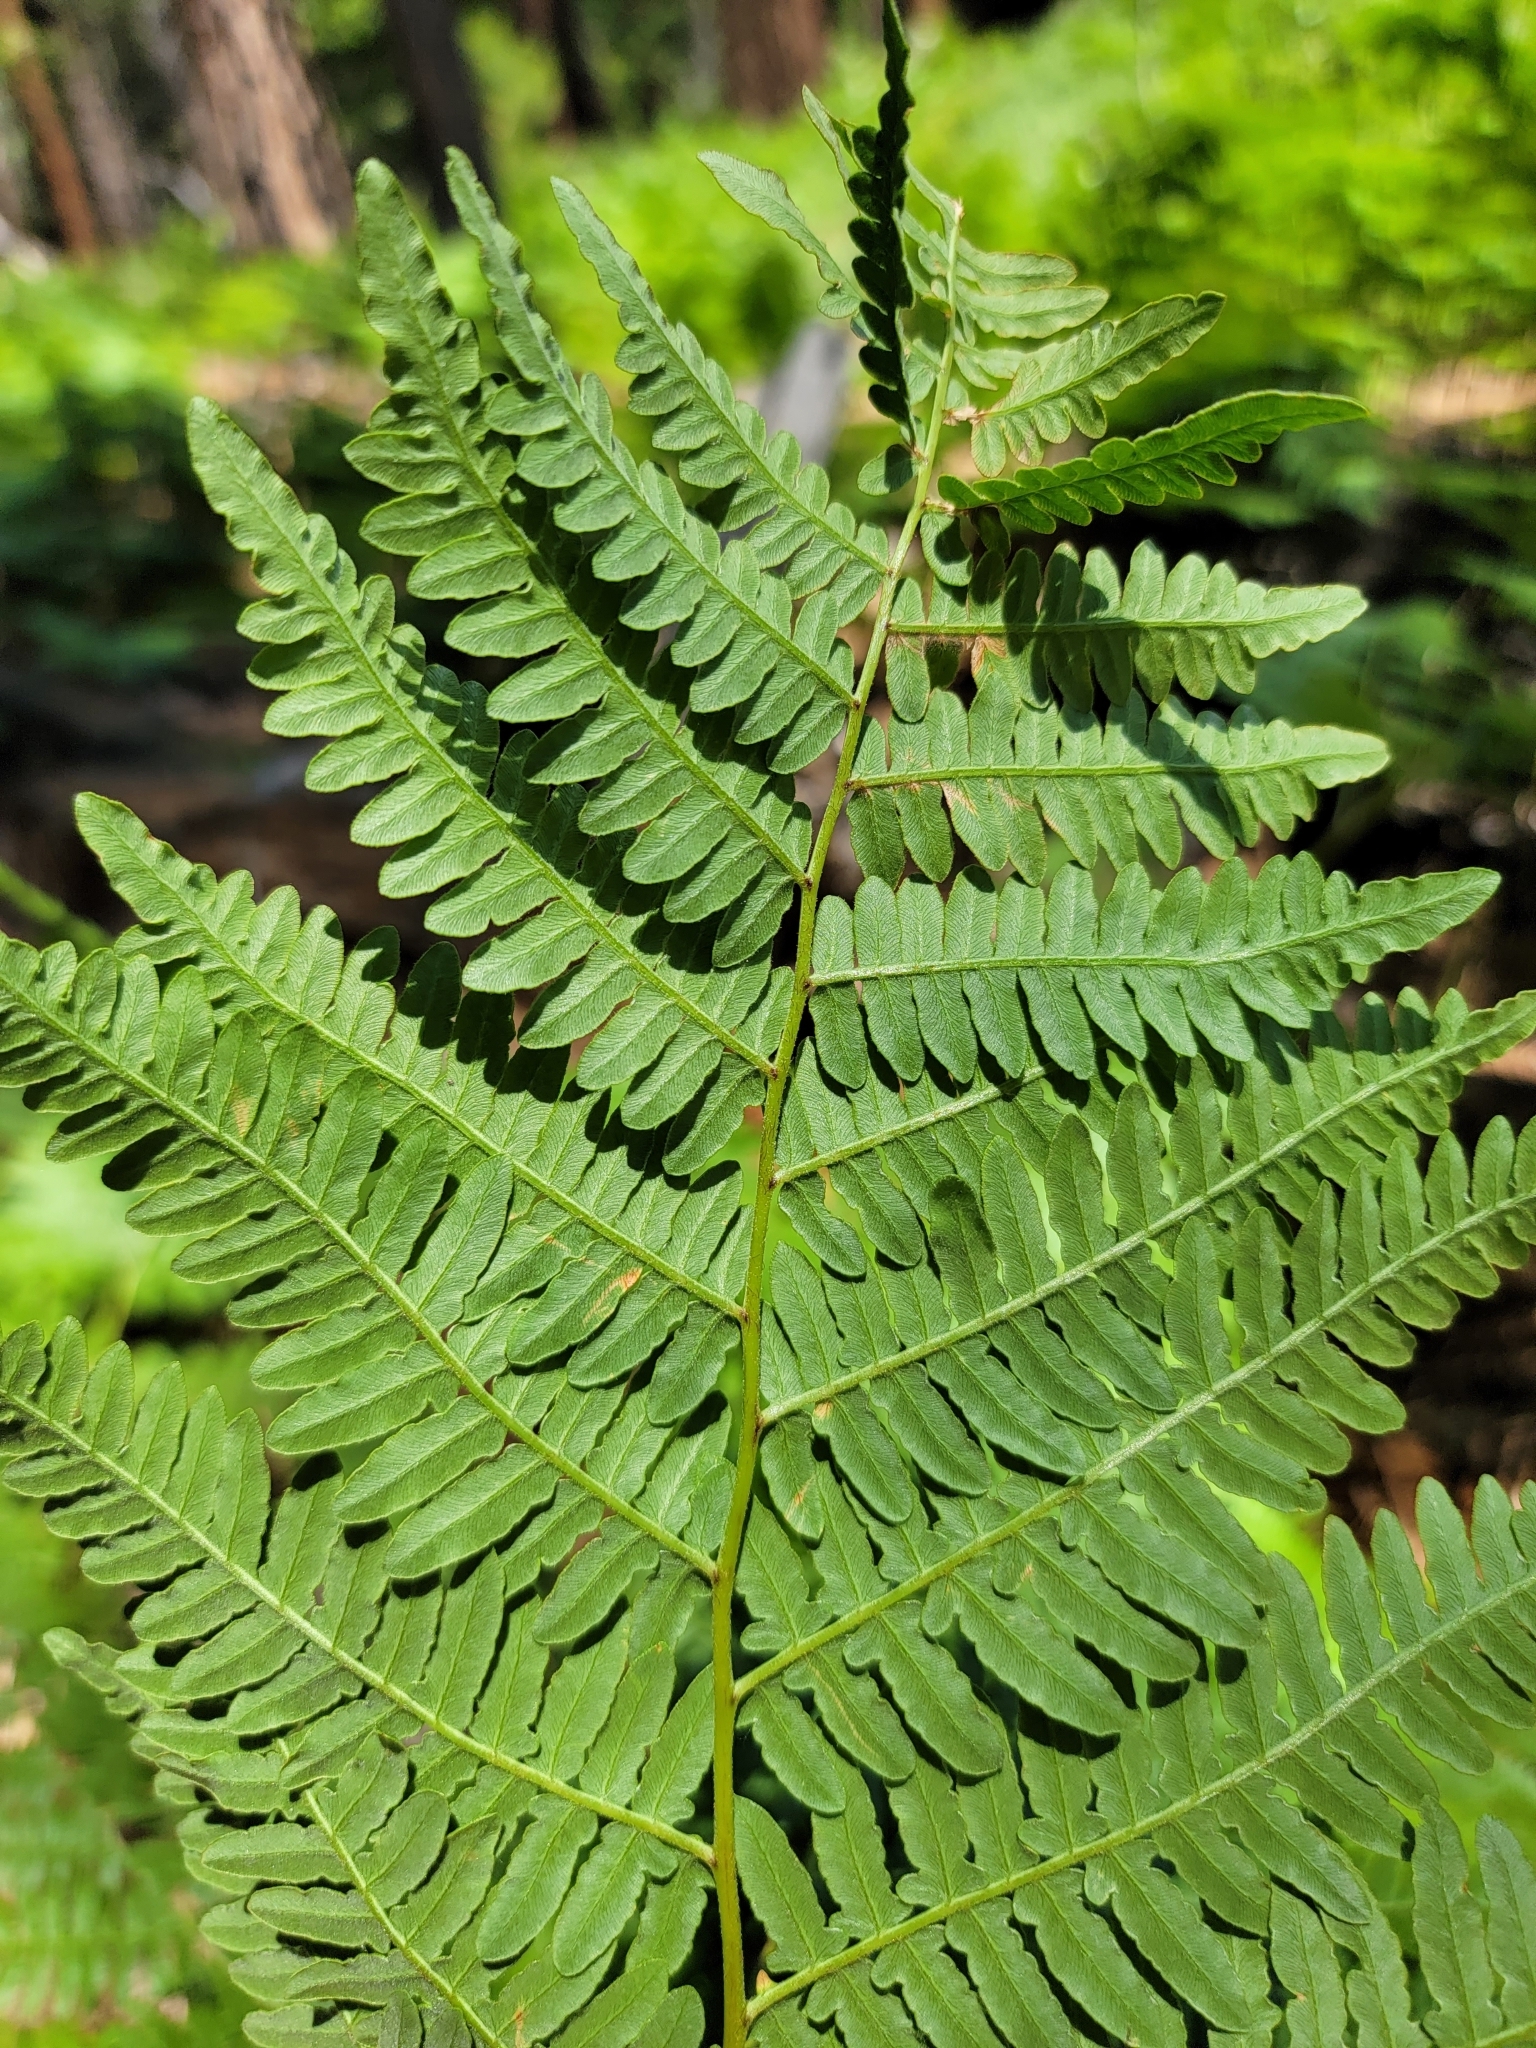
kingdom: Plantae
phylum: Tracheophyta
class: Polypodiopsida
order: Polypodiales
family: Dennstaedtiaceae
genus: Pteridium
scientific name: Pteridium aquilinum
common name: Bracken
